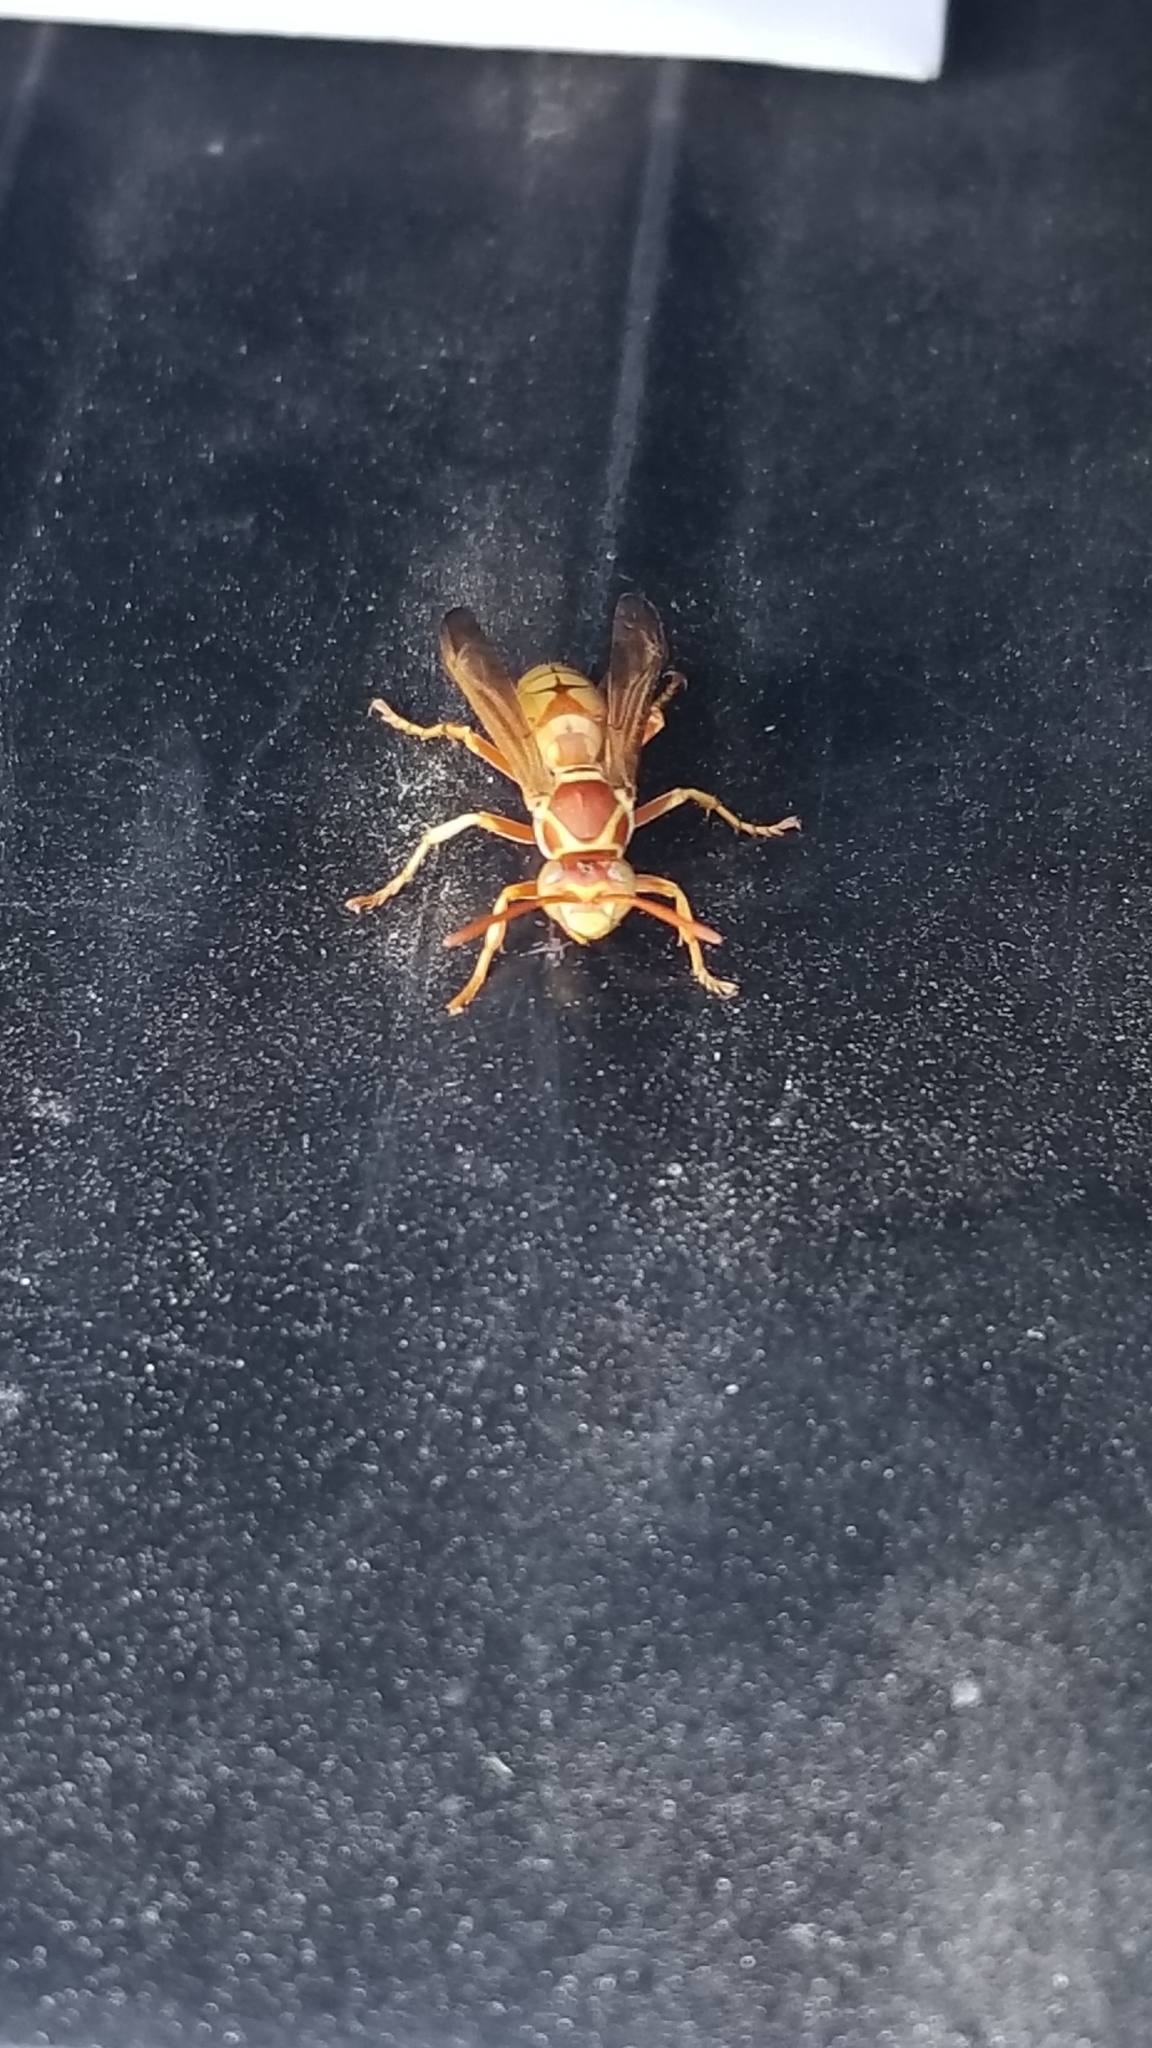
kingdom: Animalia
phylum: Arthropoda
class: Insecta
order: Hymenoptera
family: Eumenidae
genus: Polistes
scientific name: Polistes aurifer
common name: Paper wasp
